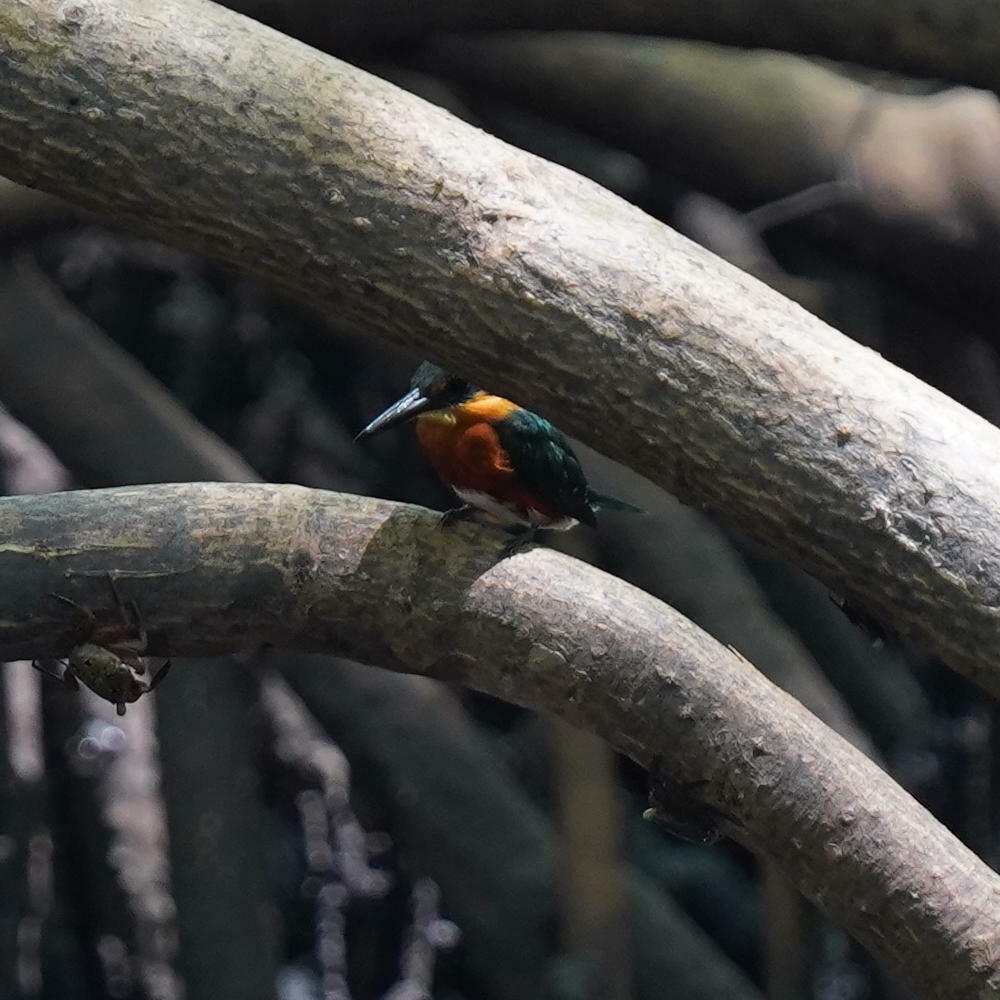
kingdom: Animalia
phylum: Chordata
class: Aves
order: Coraciiformes
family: Alcedinidae
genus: Chloroceryle
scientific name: Chloroceryle aenea
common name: American pygmy kingfisher
